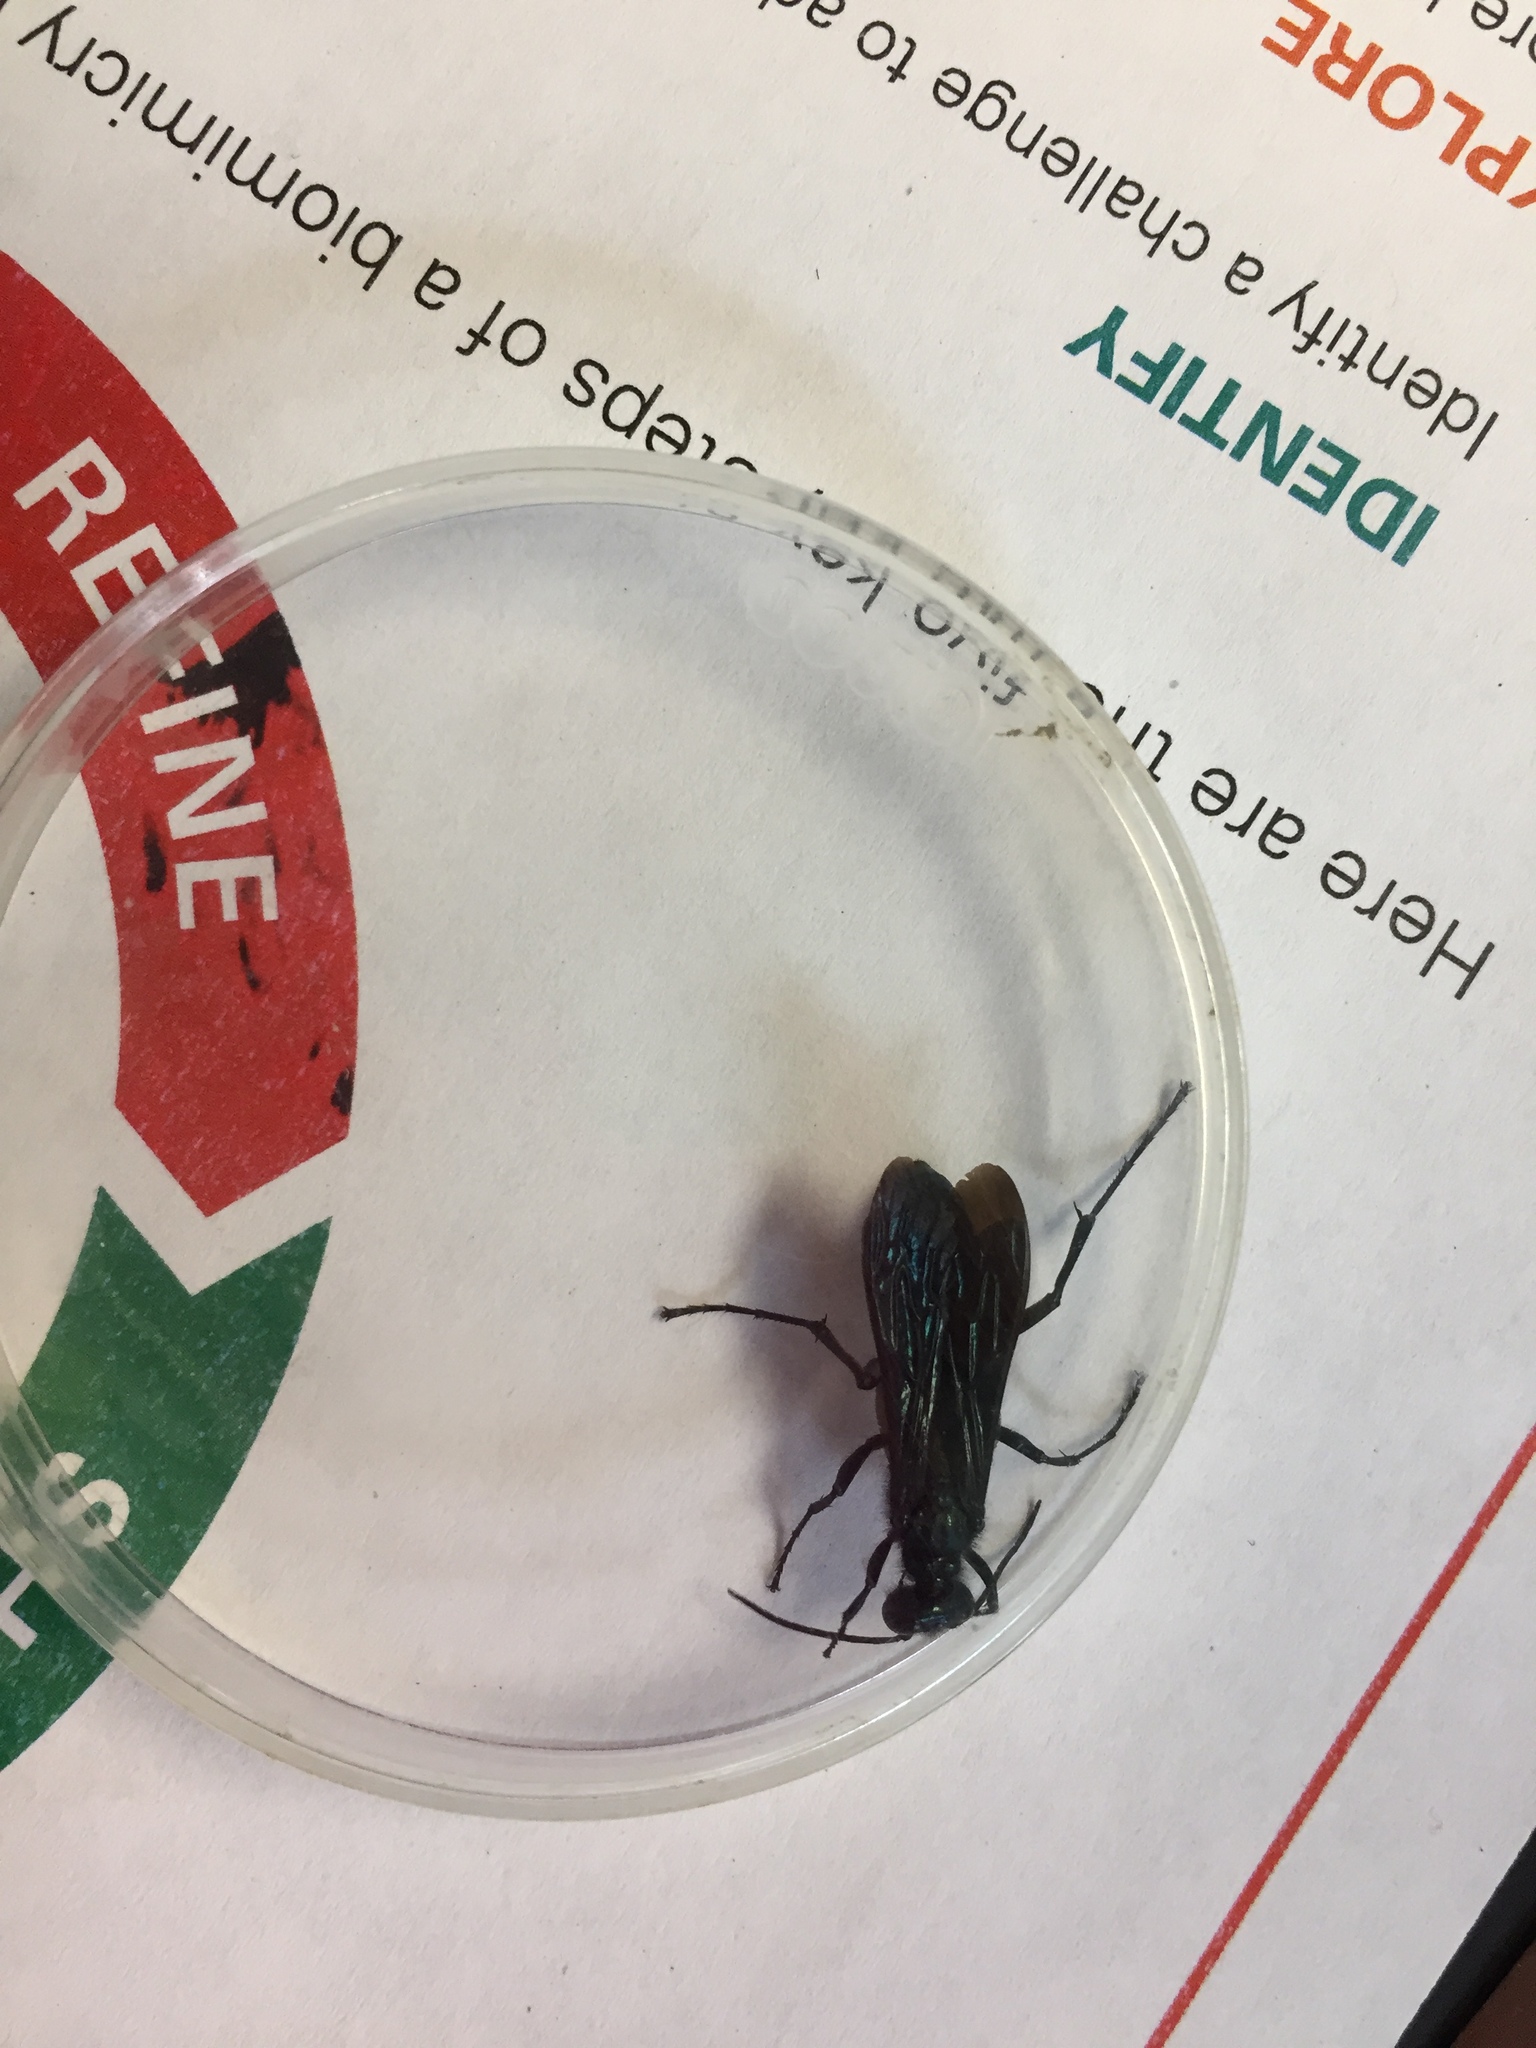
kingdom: Animalia
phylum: Arthropoda
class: Insecta
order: Hymenoptera
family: Sphecidae
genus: Chalybion
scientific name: Chalybion californicum
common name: Mud dauber
